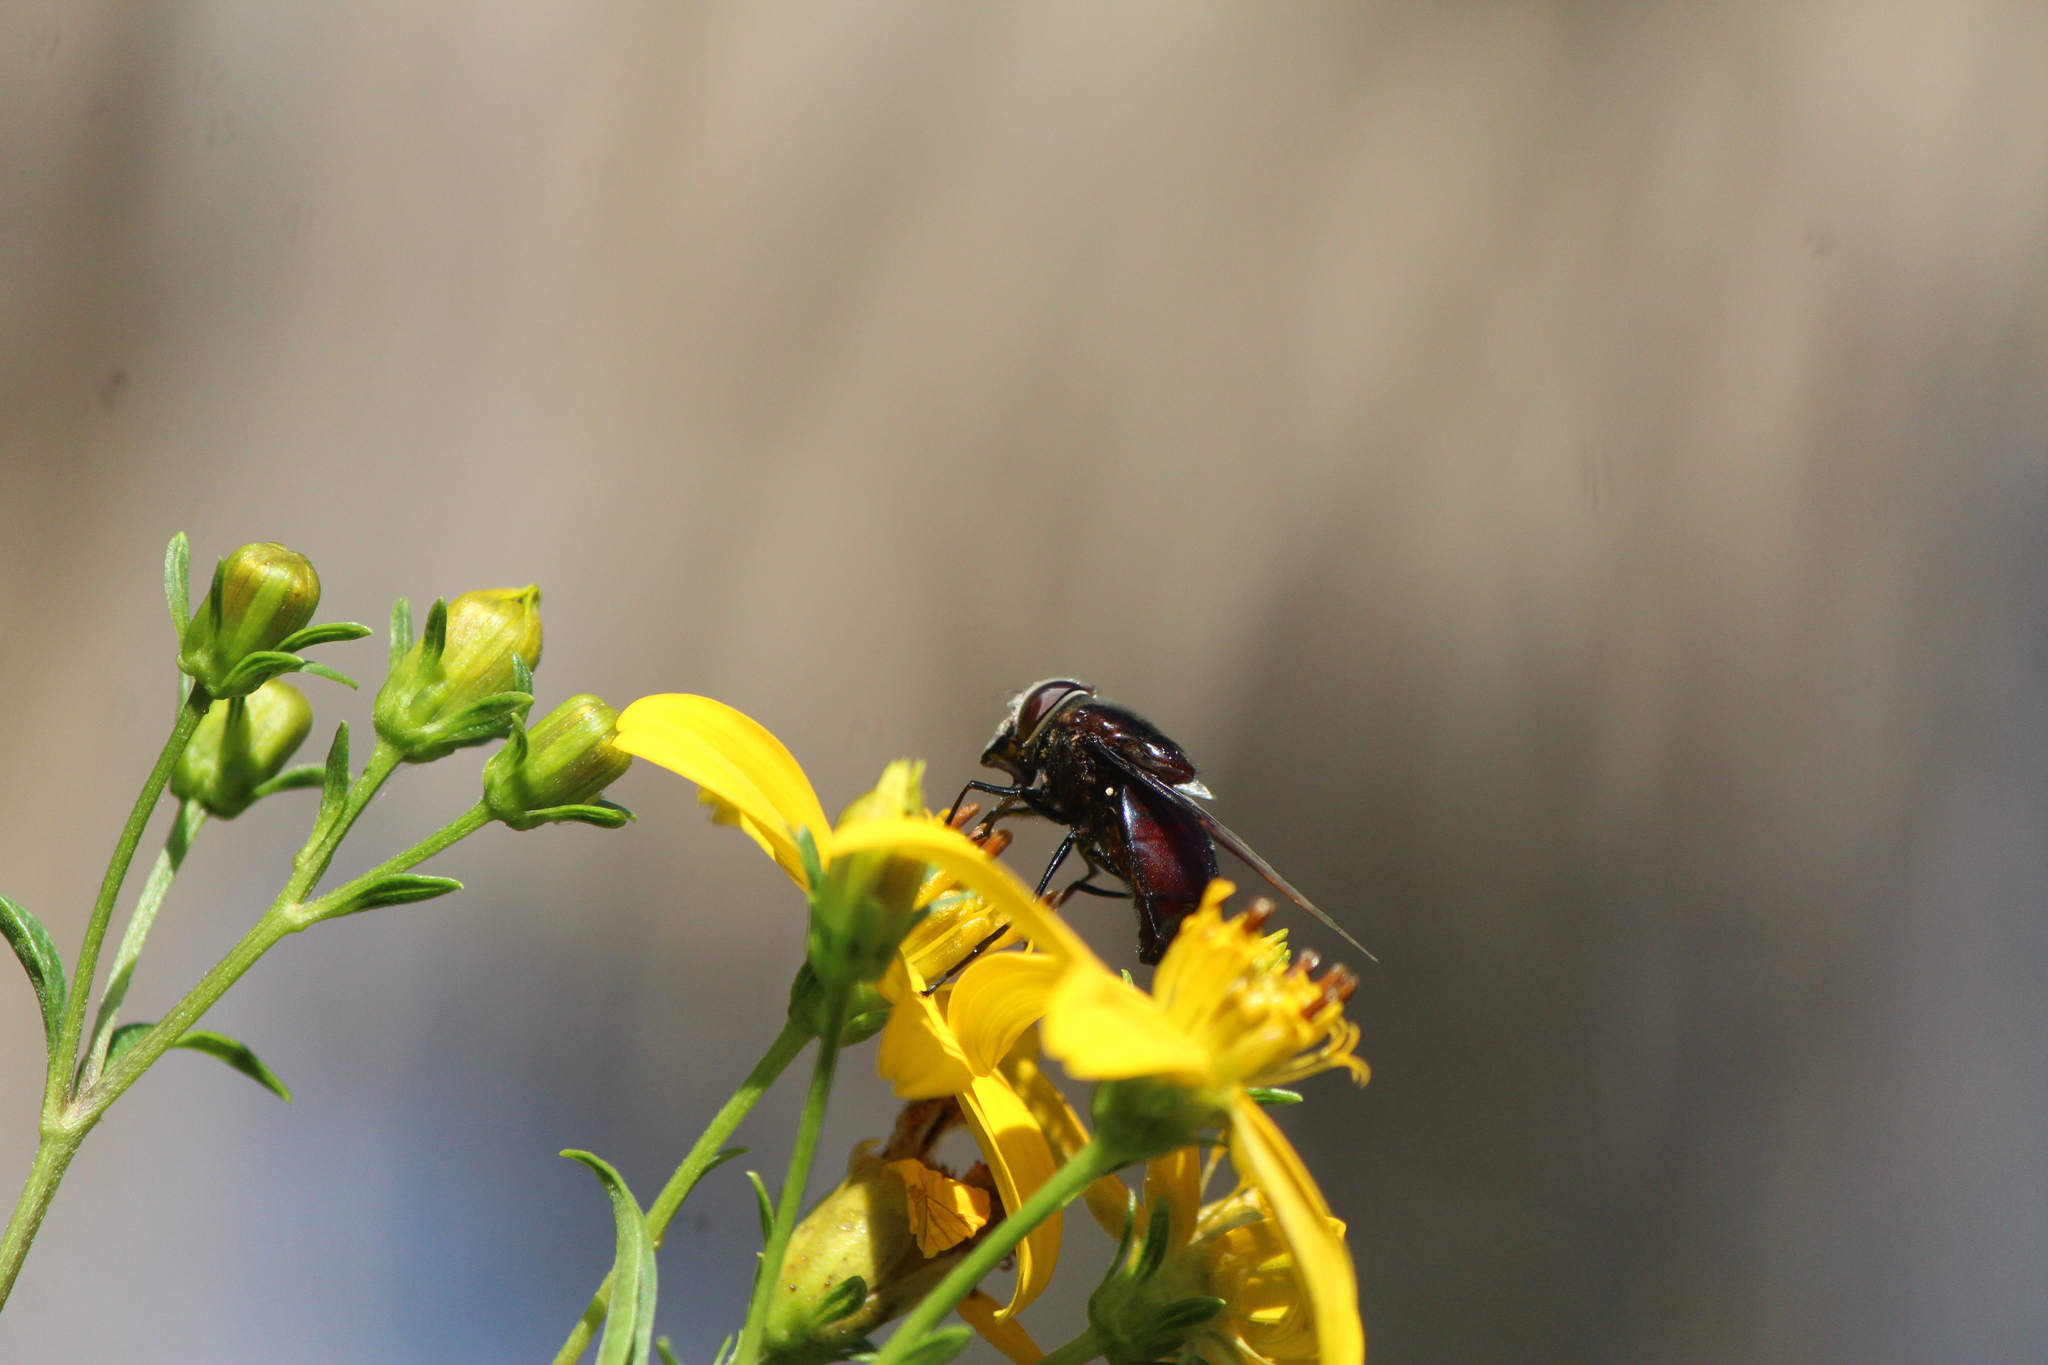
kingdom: Animalia
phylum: Arthropoda
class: Insecta
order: Diptera
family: Syrphidae
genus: Copestylum
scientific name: Copestylum violaceum
